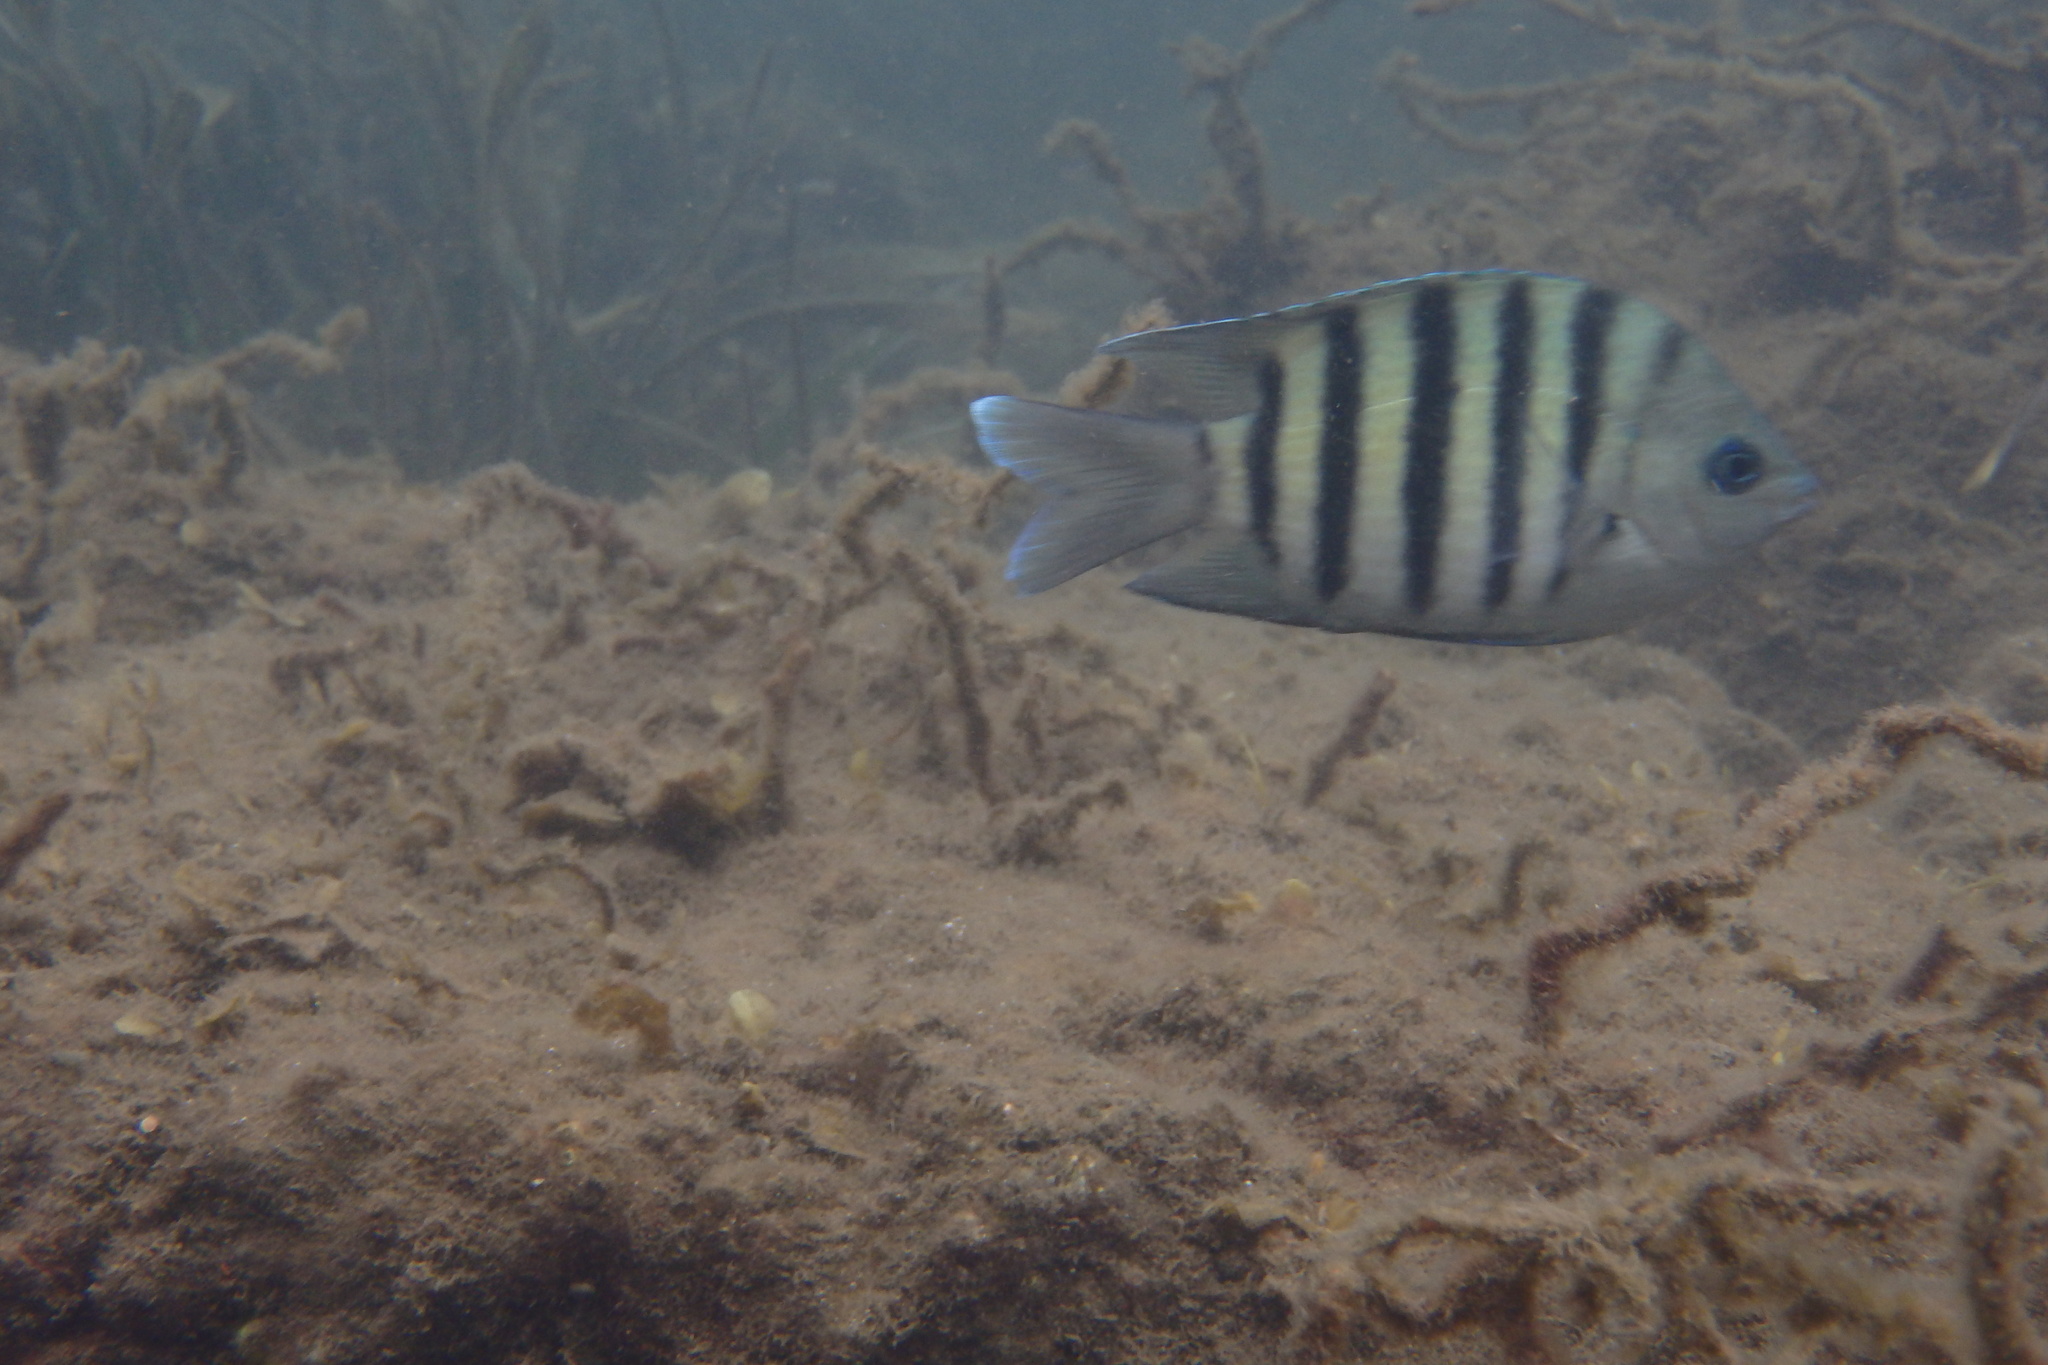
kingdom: Animalia
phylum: Chordata
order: Perciformes
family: Pomacentridae
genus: Abudefduf
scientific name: Abudefduf bengalensis
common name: Bengal sergeant
